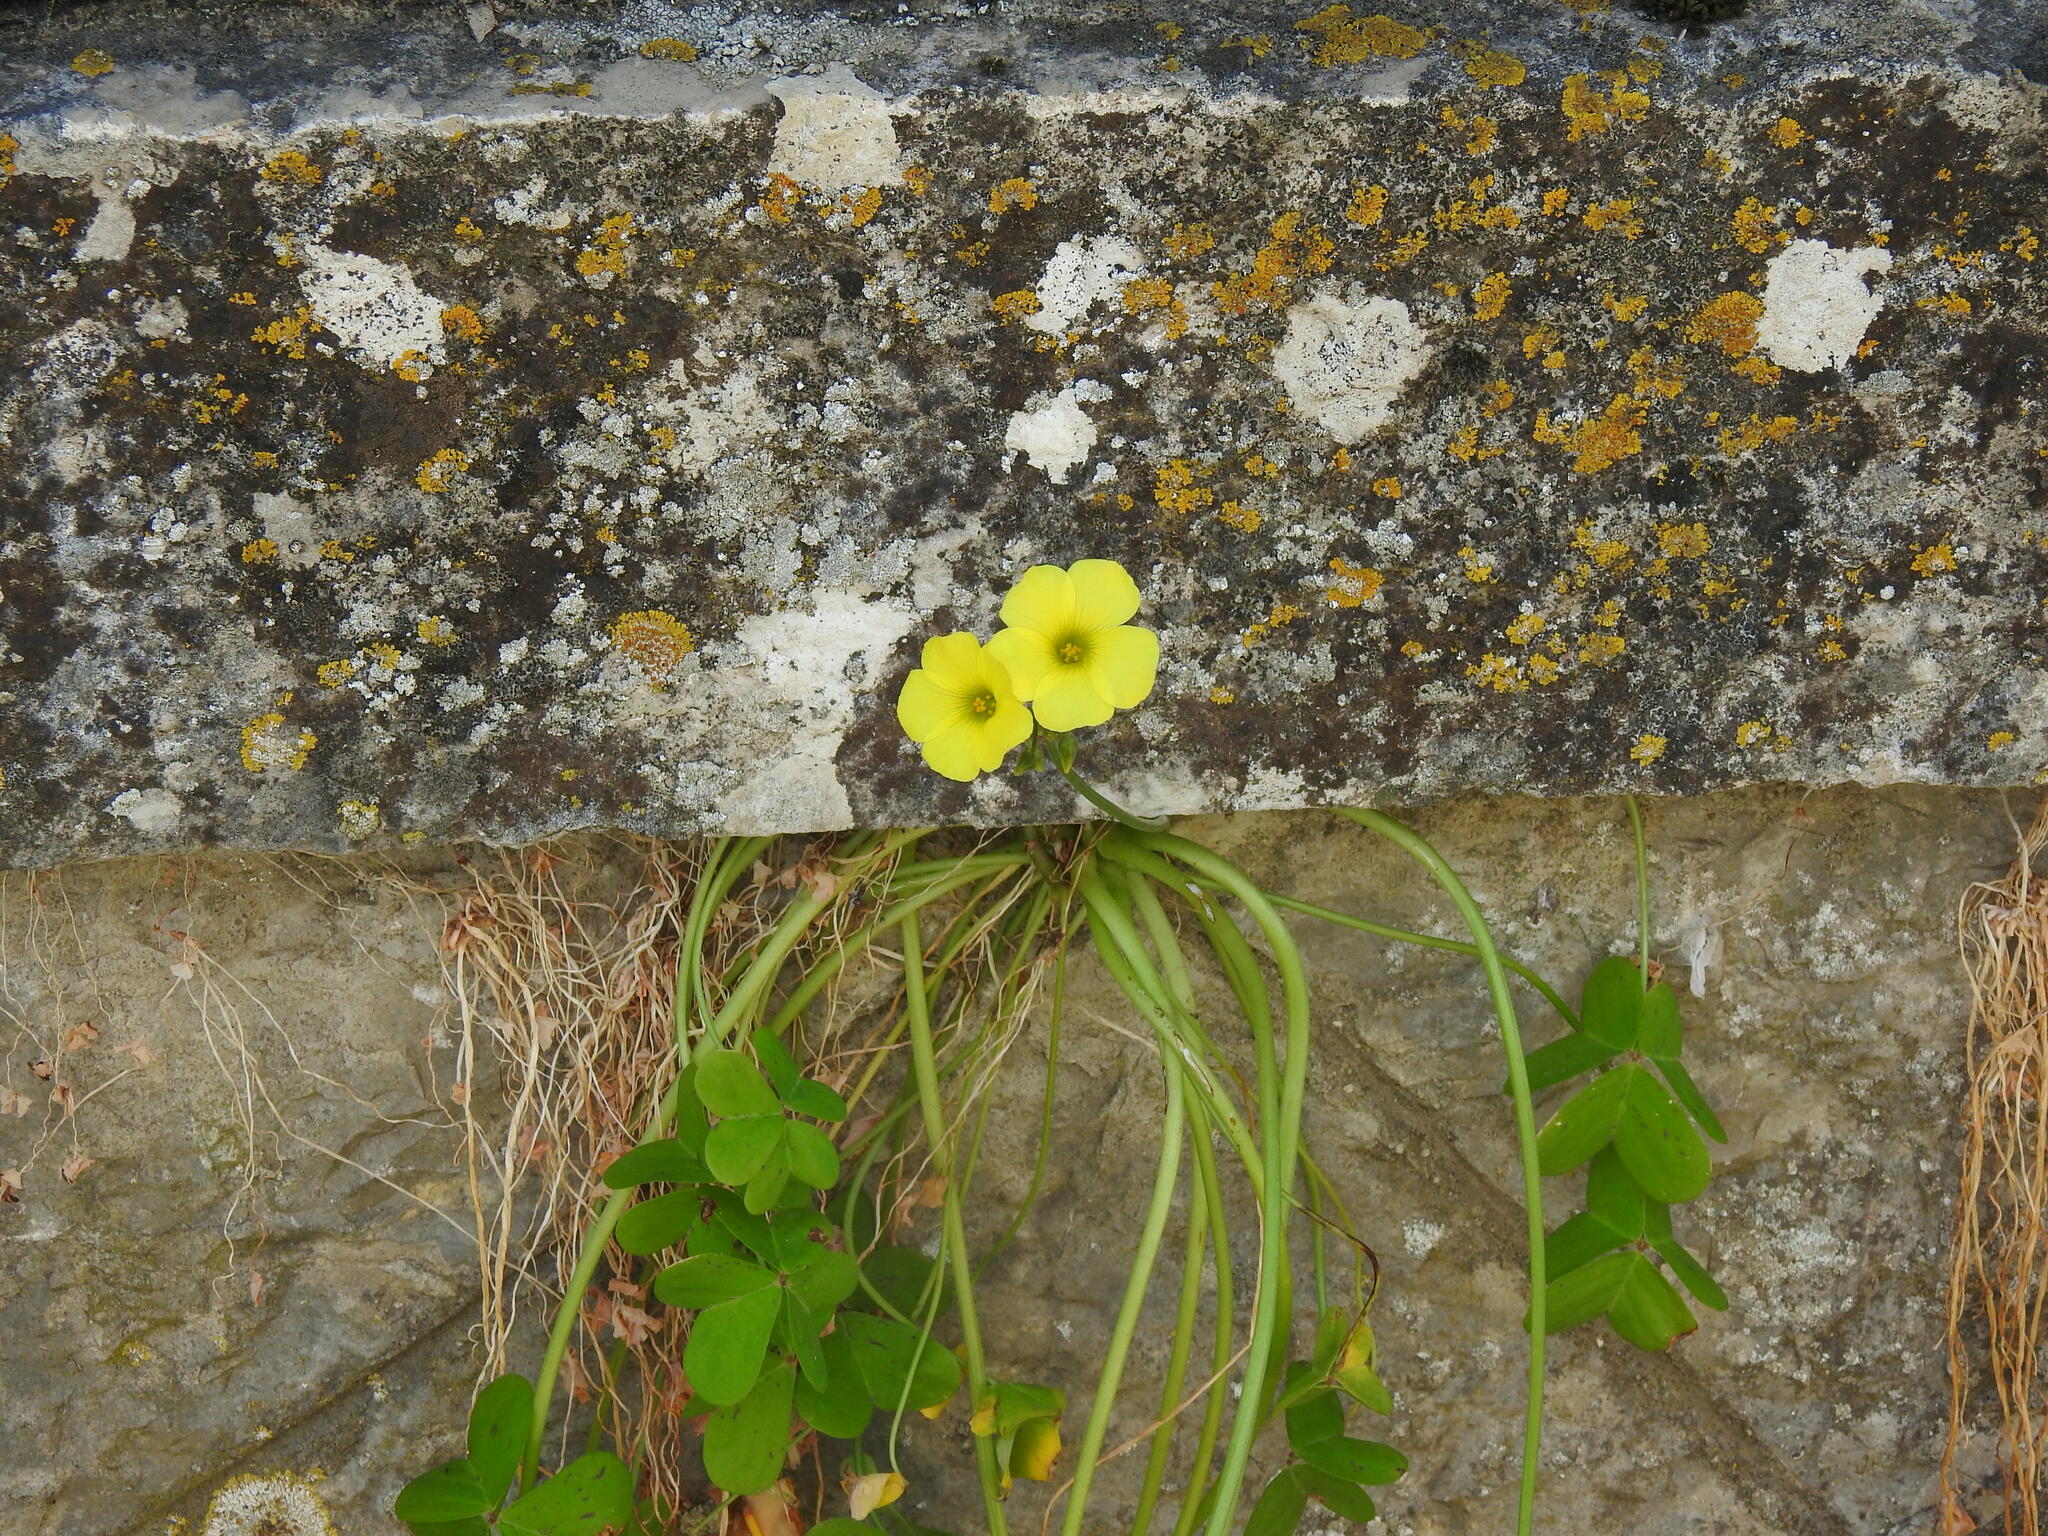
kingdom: Plantae
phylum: Tracheophyta
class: Magnoliopsida
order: Oxalidales
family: Oxalidaceae
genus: Oxalis
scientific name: Oxalis pes-caprae
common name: Bermuda-buttercup
